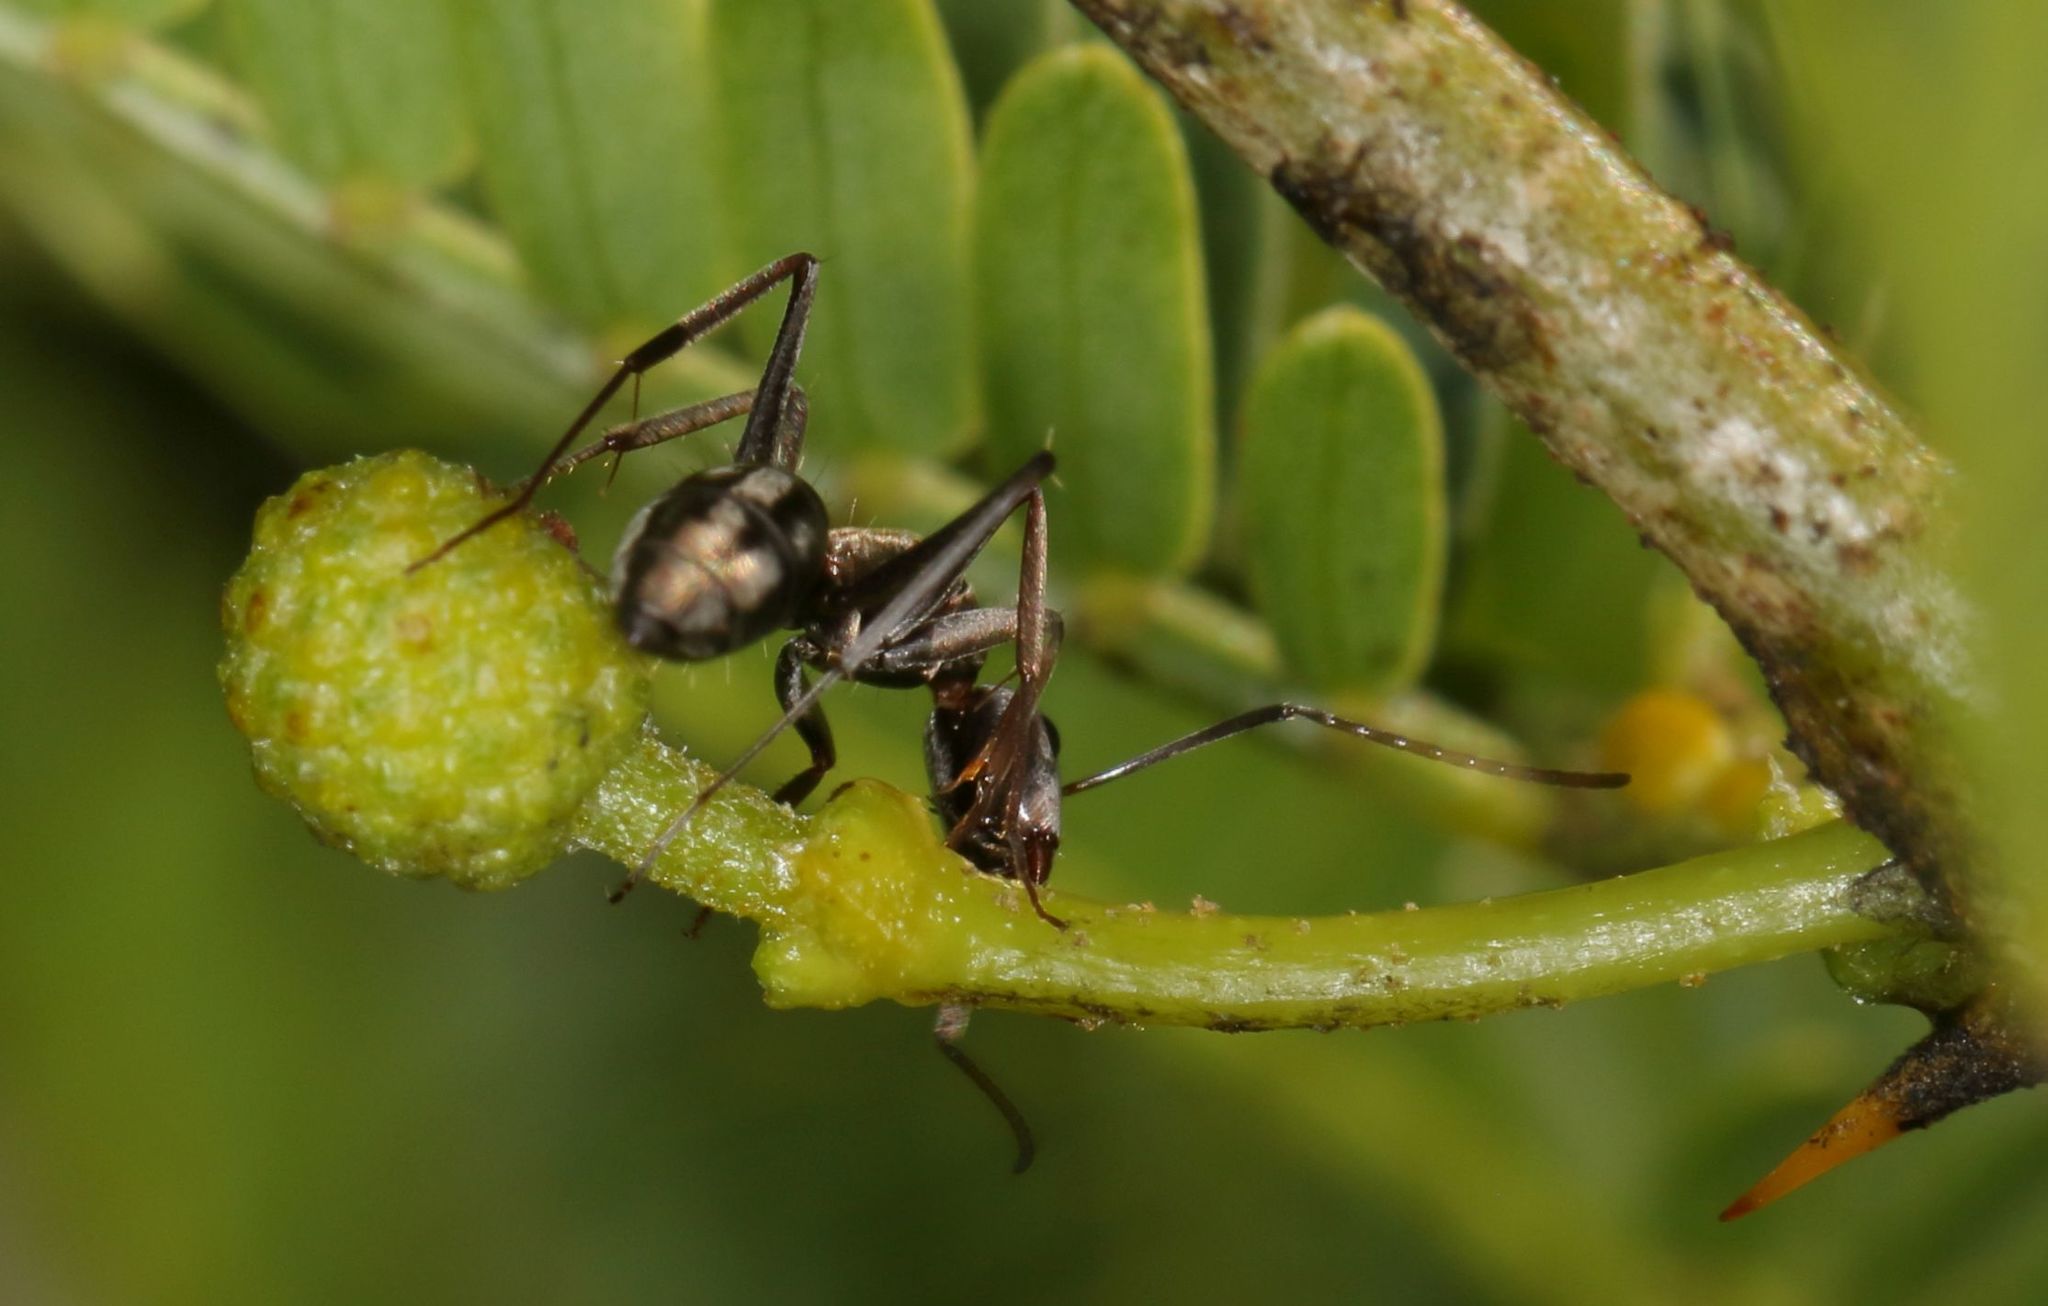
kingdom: Animalia
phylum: Arthropoda
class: Insecta
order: Hymenoptera
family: Formicidae
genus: Camponotus
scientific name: Camponotus vestitus
